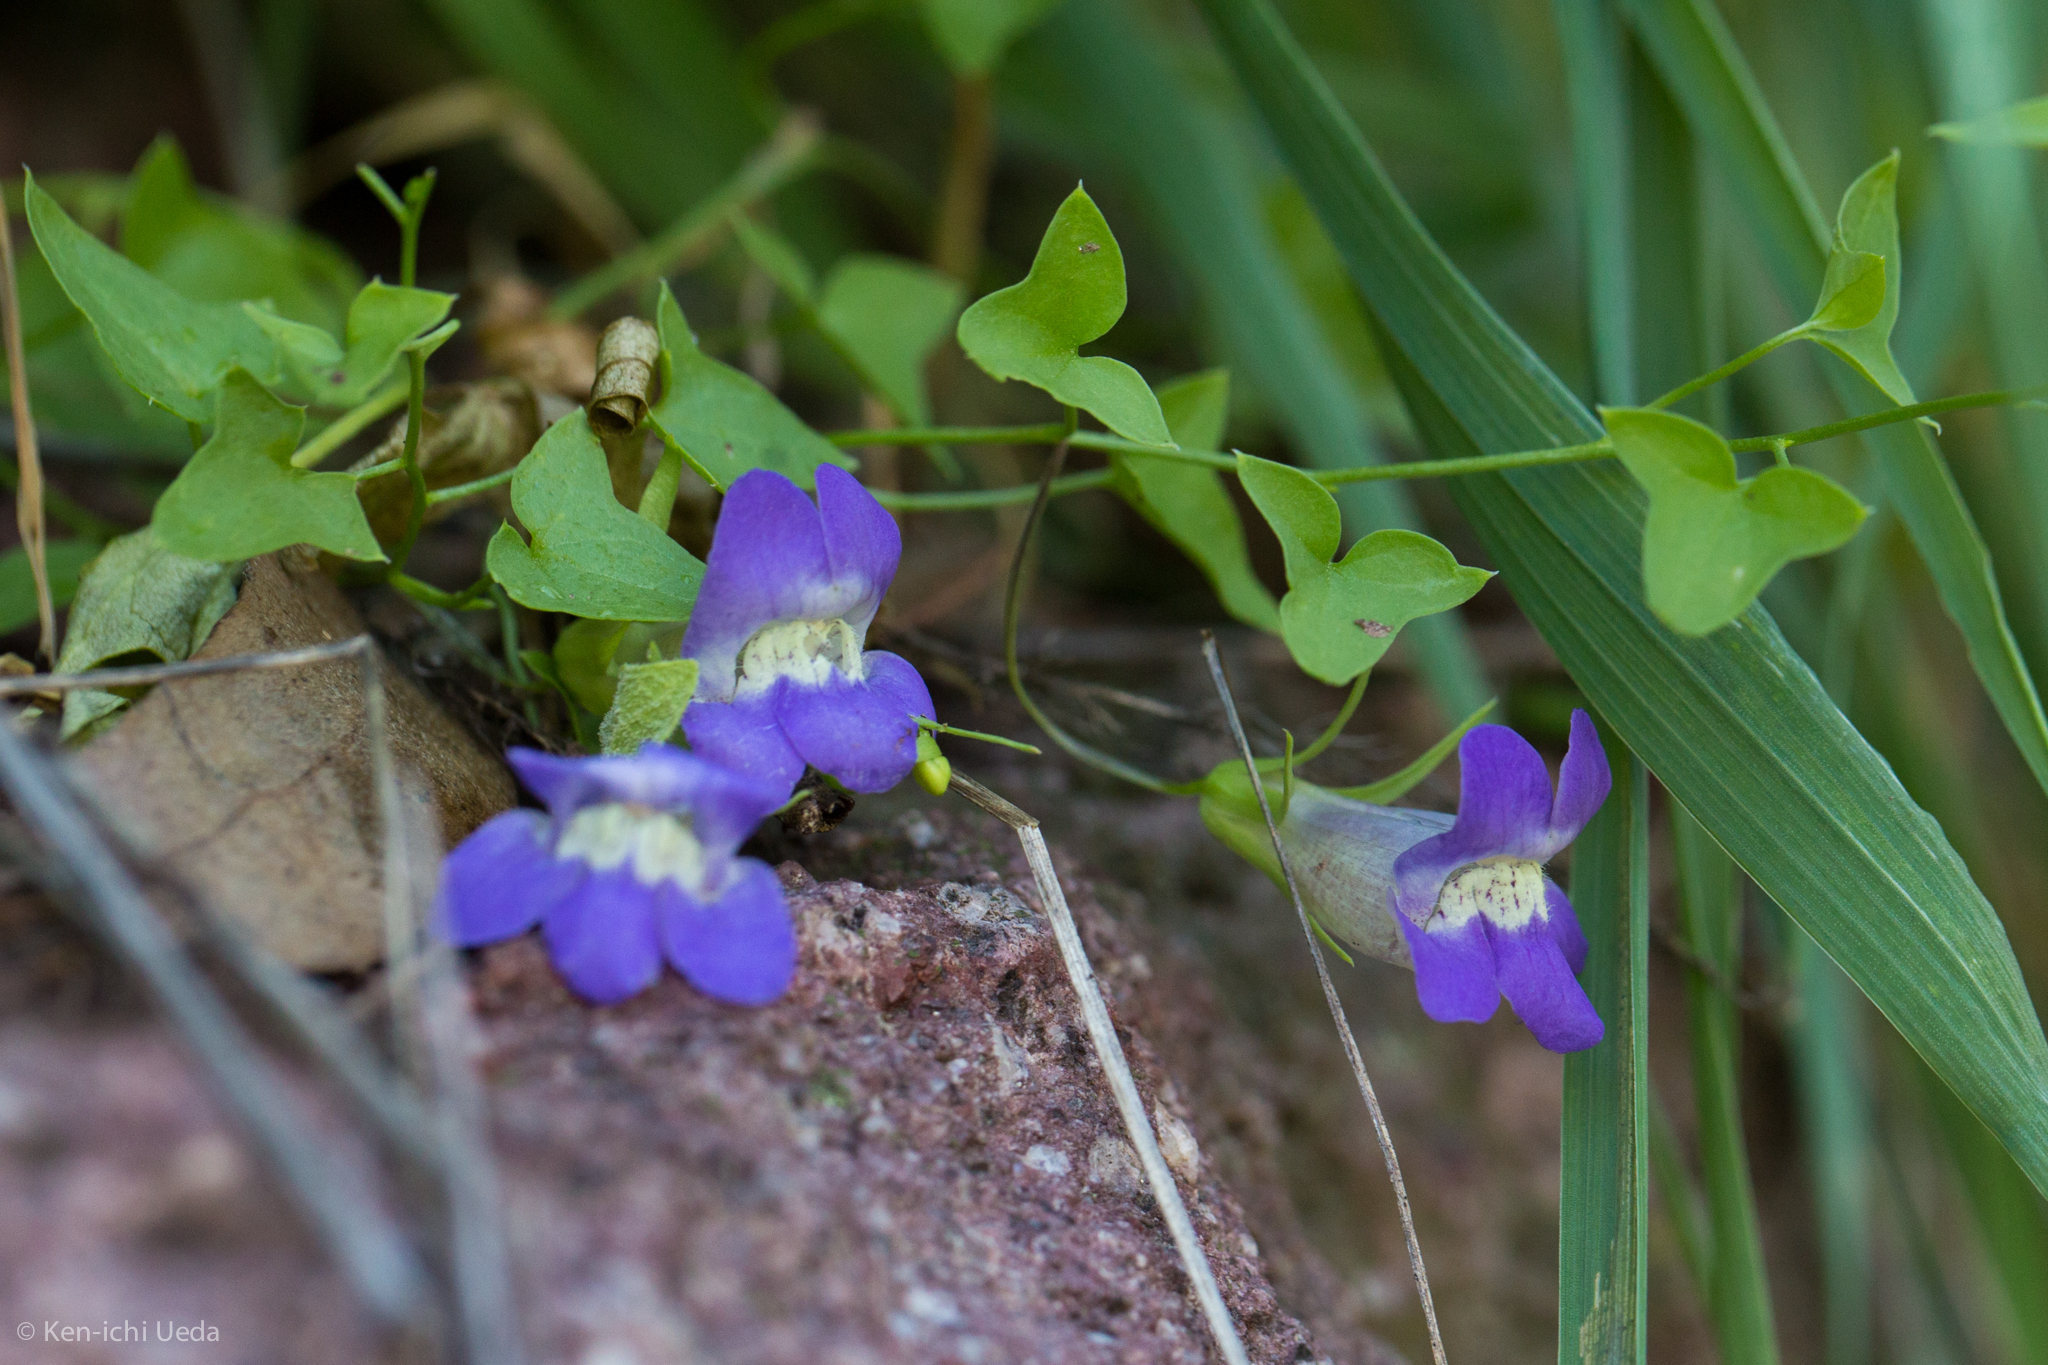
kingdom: Plantae
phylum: Tracheophyta
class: Magnoliopsida
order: Lamiales
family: Plantaginaceae
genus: Maurandella
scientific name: Maurandella antirrhiniflora
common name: Violet twining-snapdragon
